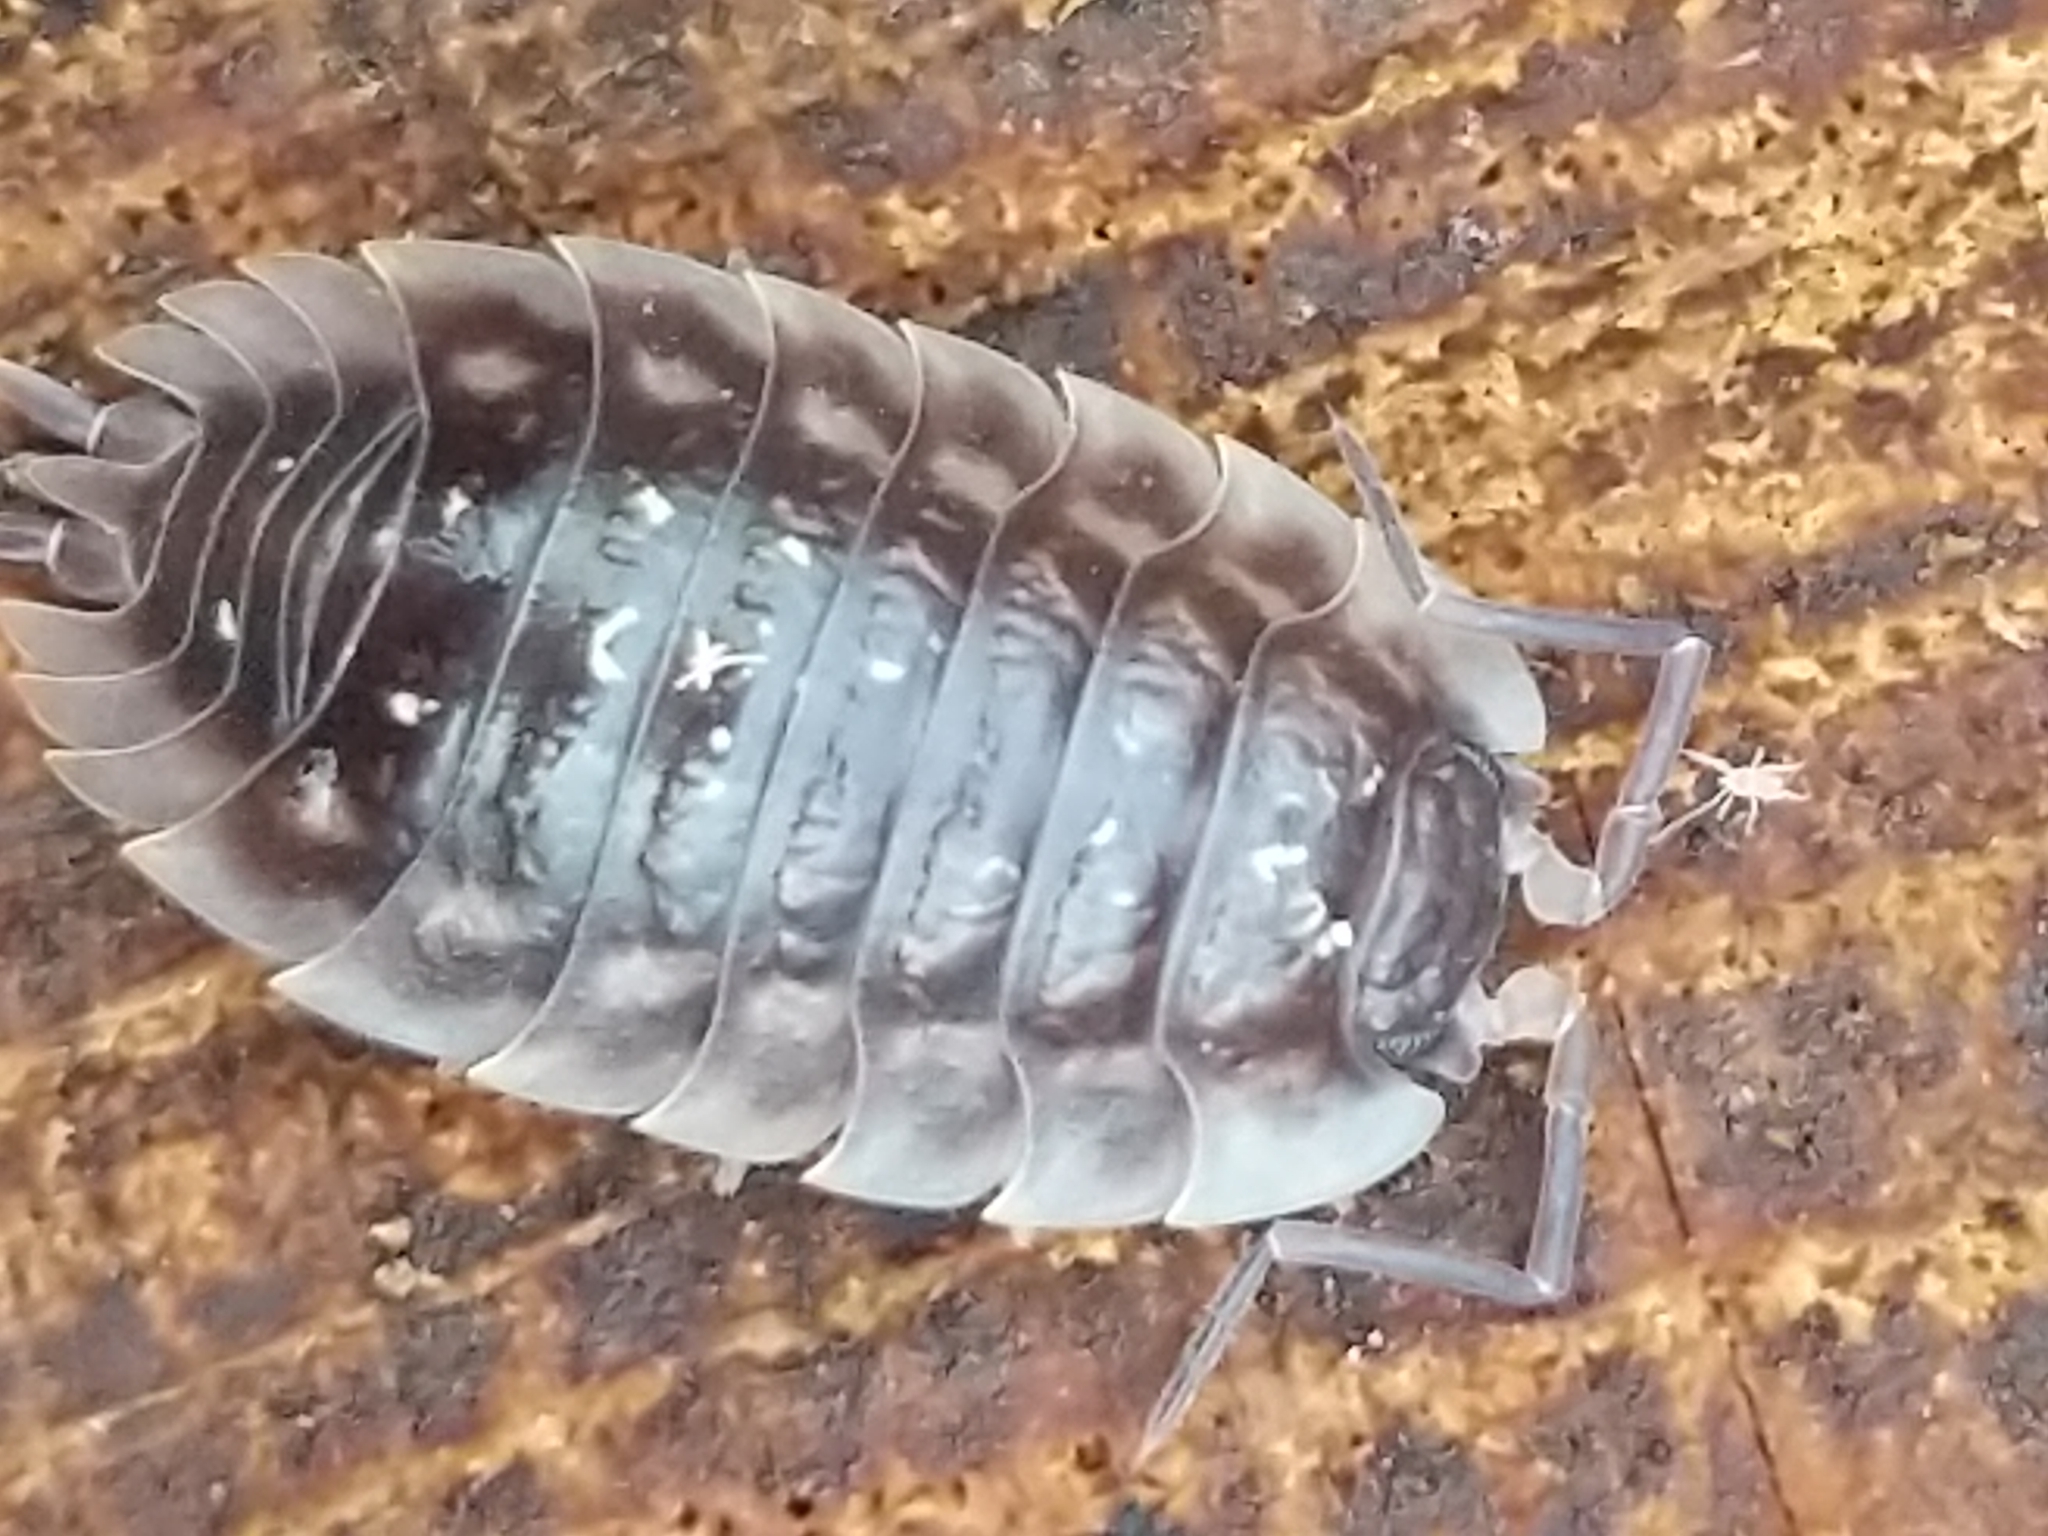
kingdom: Animalia
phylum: Arthropoda
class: Malacostraca
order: Isopoda
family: Oniscidae
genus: Oniscus
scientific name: Oniscus asellus
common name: Common shiny woodlouse
